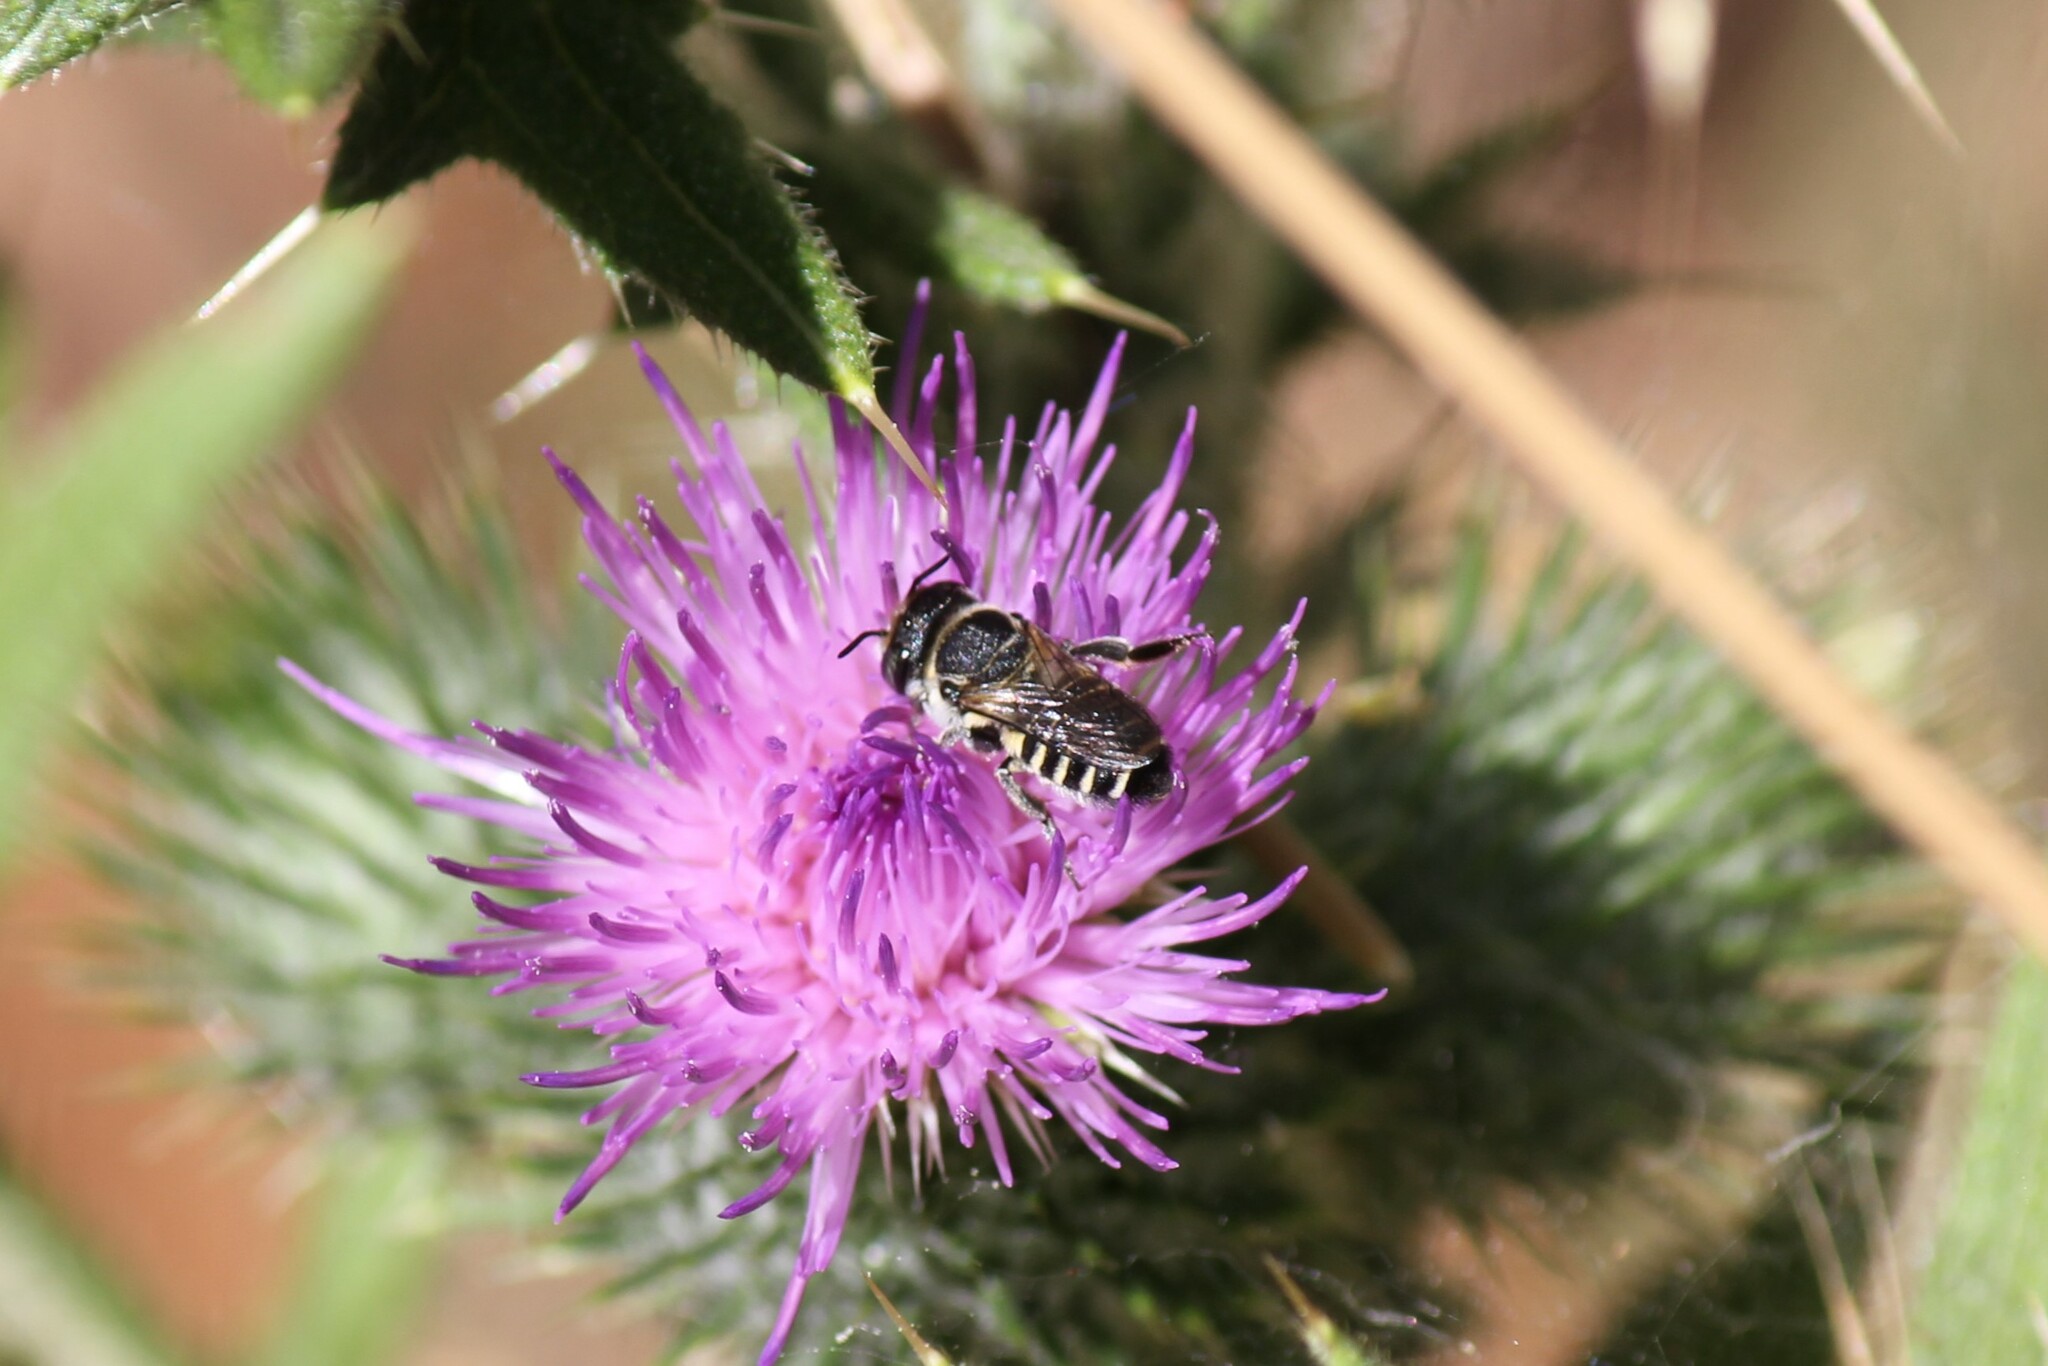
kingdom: Animalia
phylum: Arthropoda
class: Insecta
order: Hymenoptera
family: Megachilidae
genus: Megachile
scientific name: Megachile apicalis
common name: Apical leafcutter bee
